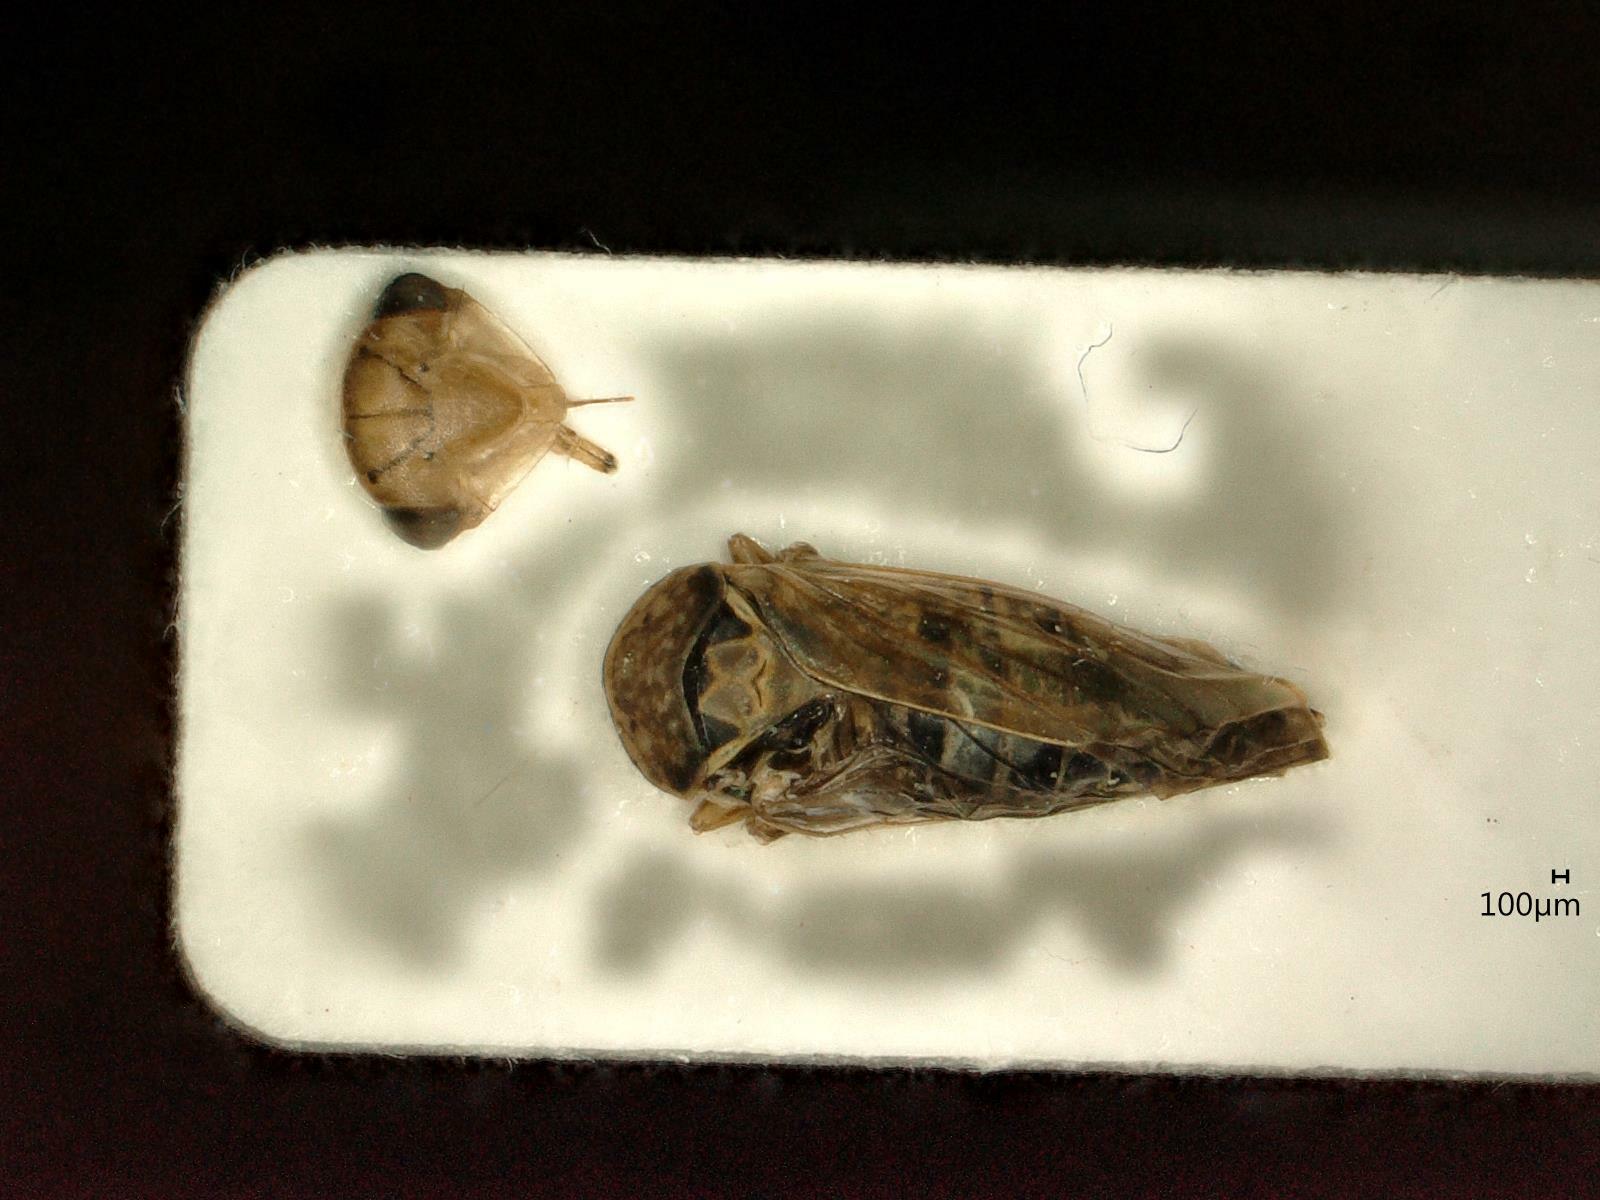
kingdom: Animalia
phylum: Arthropoda
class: Insecta
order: Hemiptera
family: Cicadellidae
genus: Idiocerus
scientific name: Idiocerus stigmaticalis
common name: Leafhopper
